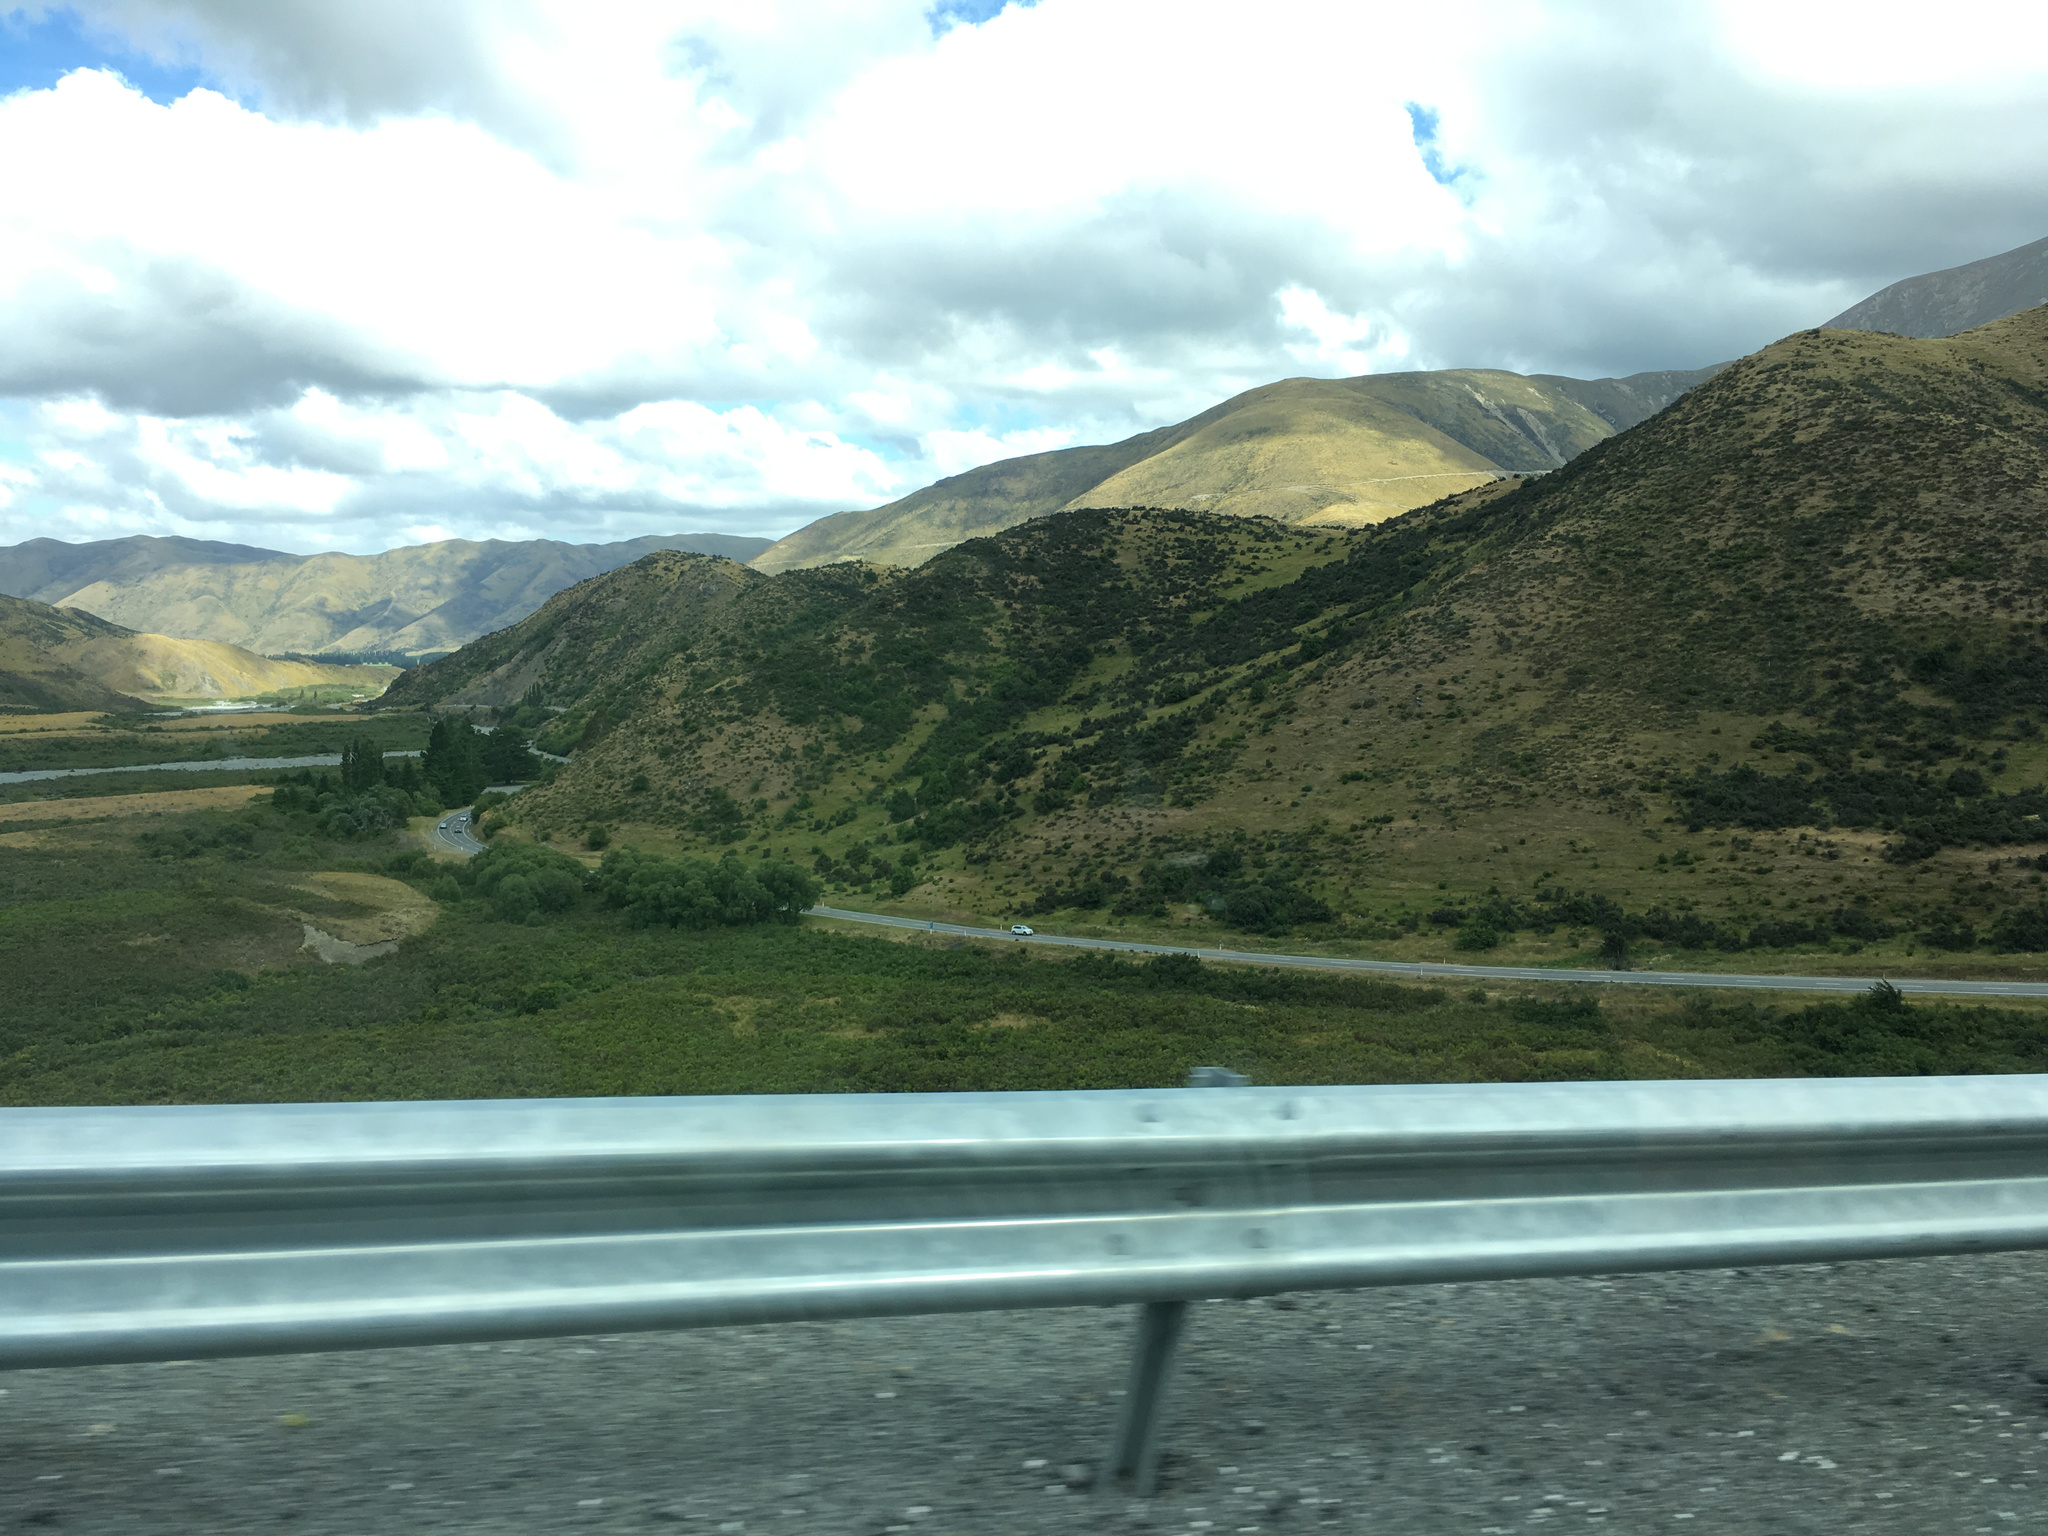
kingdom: Plantae
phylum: Tracheophyta
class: Magnoliopsida
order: Rosales
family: Rosaceae
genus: Crataegus
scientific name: Crataegus monogyna
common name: Hawthorn
